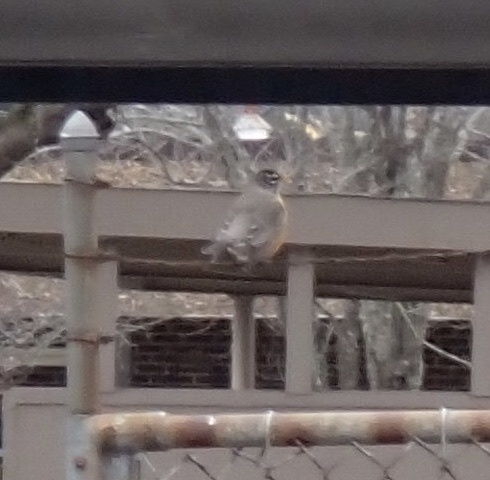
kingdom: Animalia
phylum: Chordata
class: Aves
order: Passeriformes
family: Turdidae
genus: Turdus
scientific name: Turdus migratorius
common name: American robin
